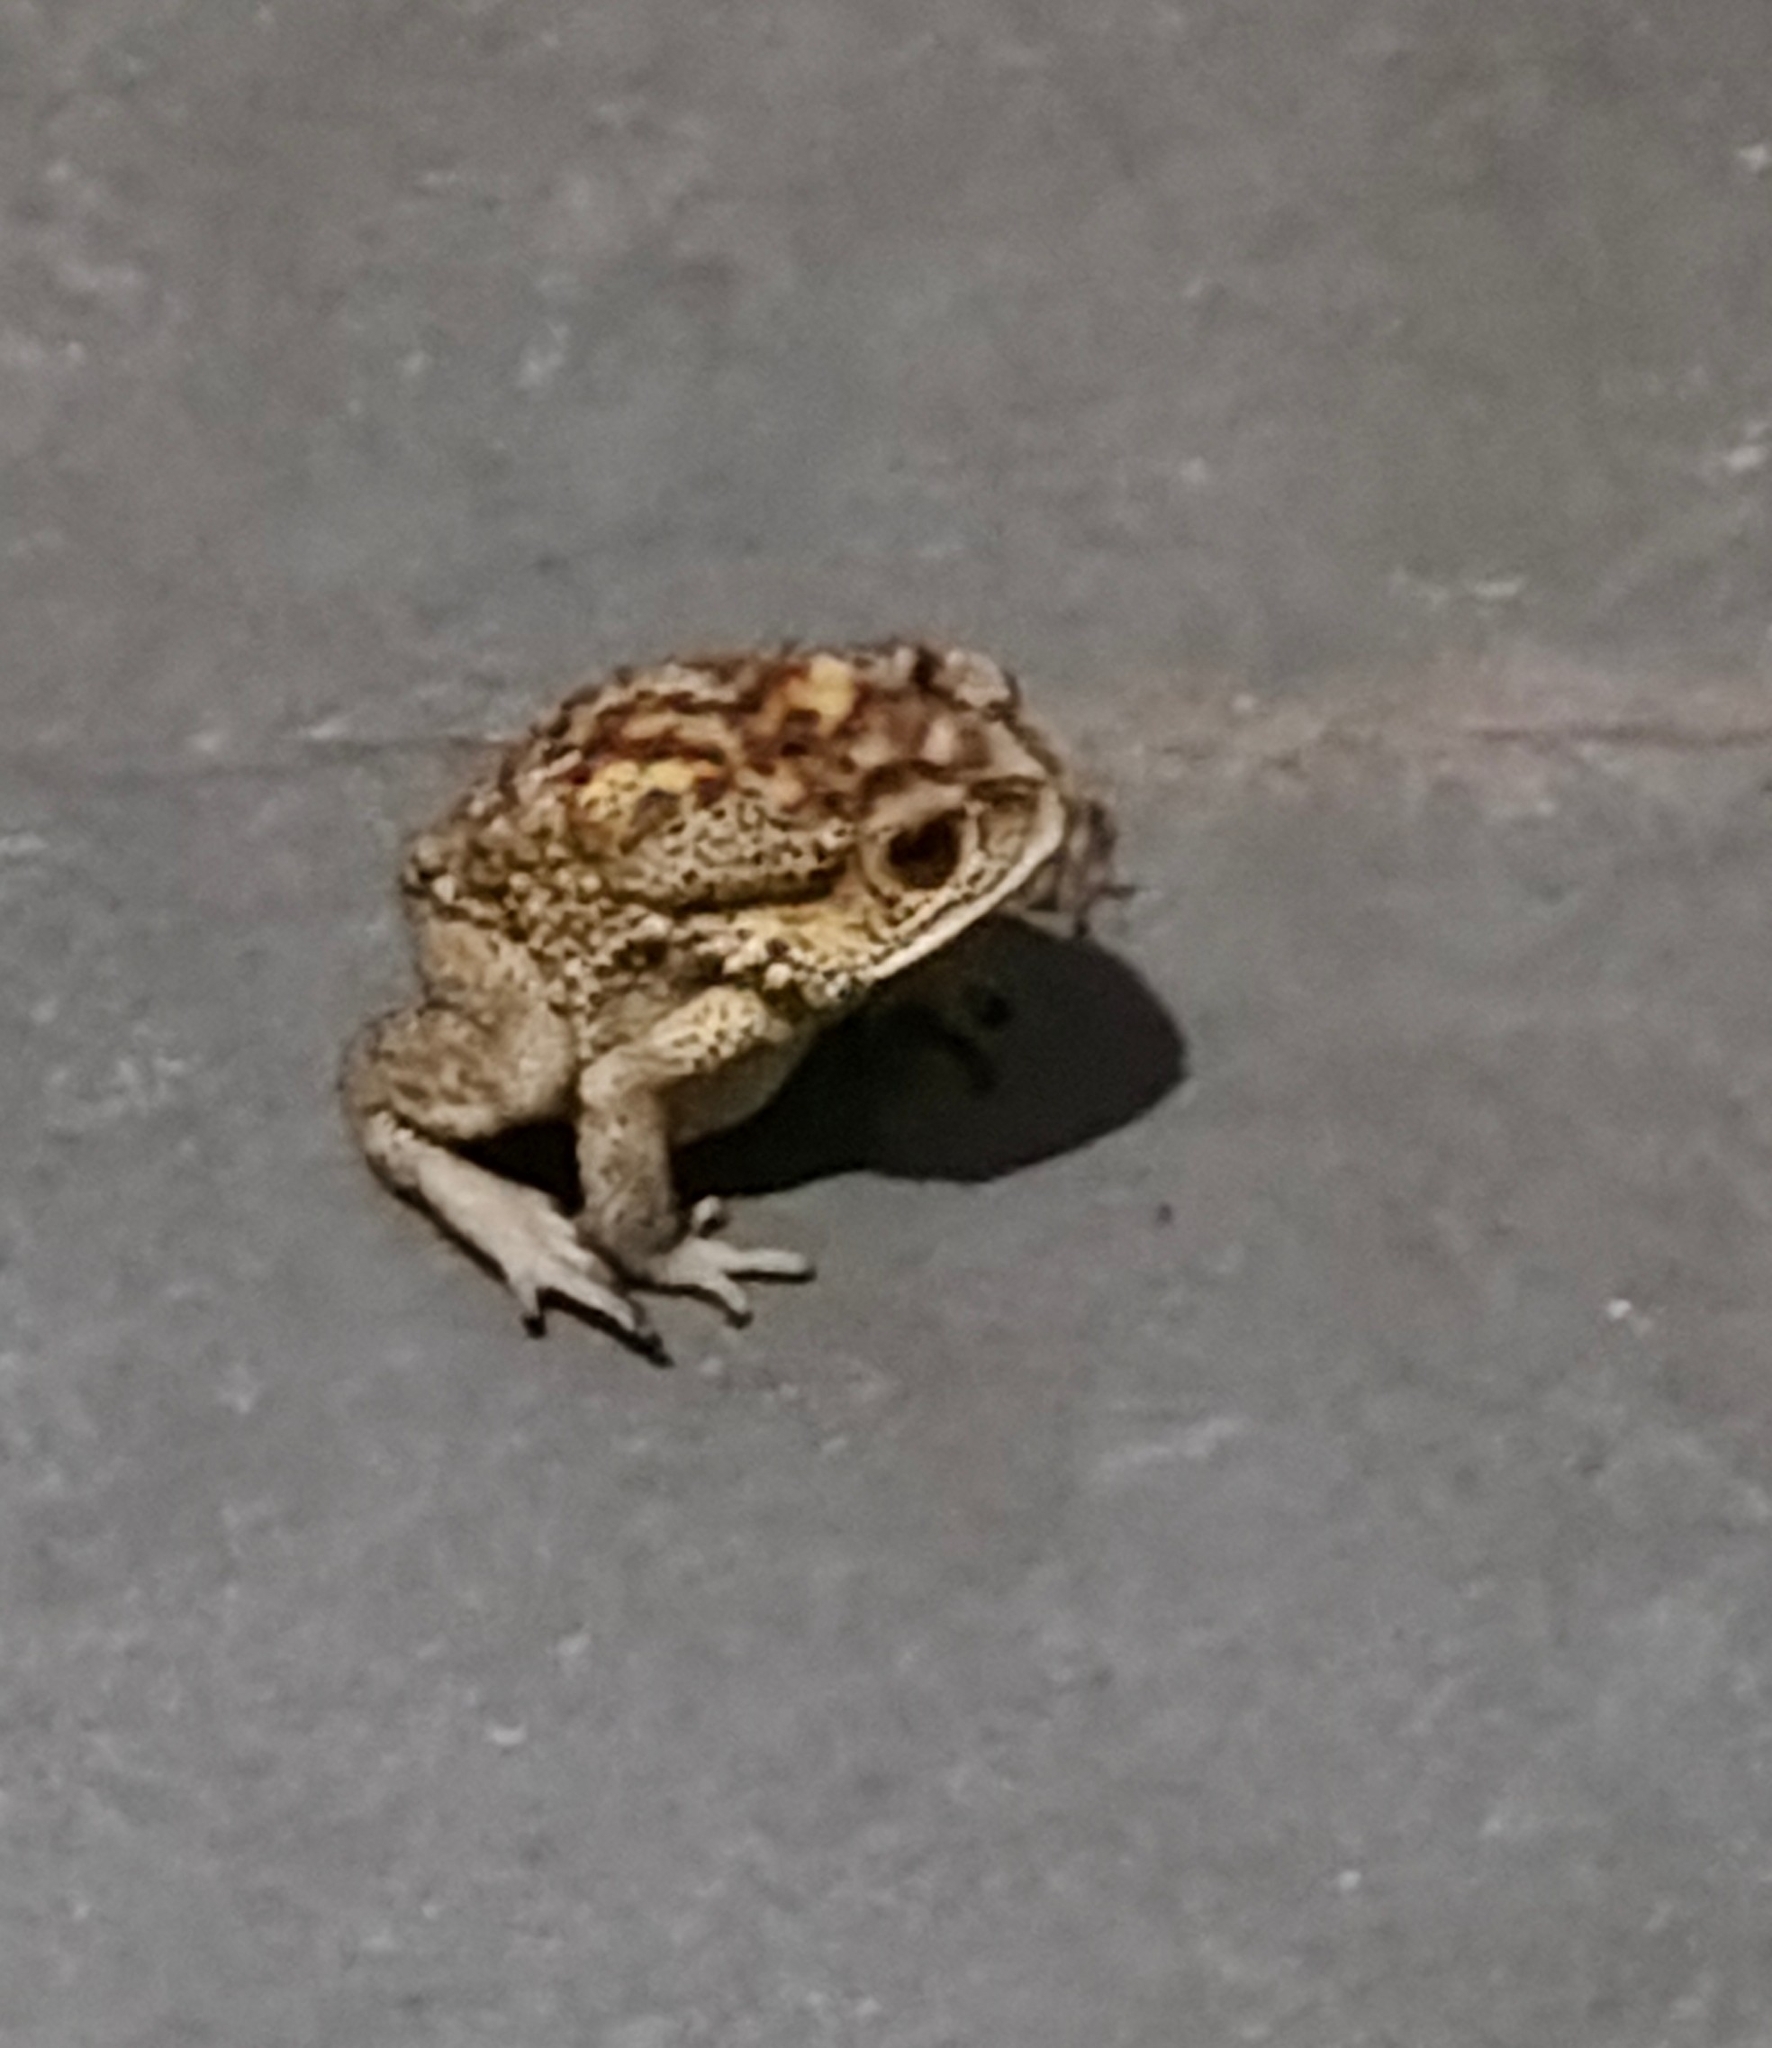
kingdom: Animalia
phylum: Chordata
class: Amphibia
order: Anura
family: Bufonidae
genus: Duttaphrynus
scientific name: Duttaphrynus melanostictus
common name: Common sunda toad
